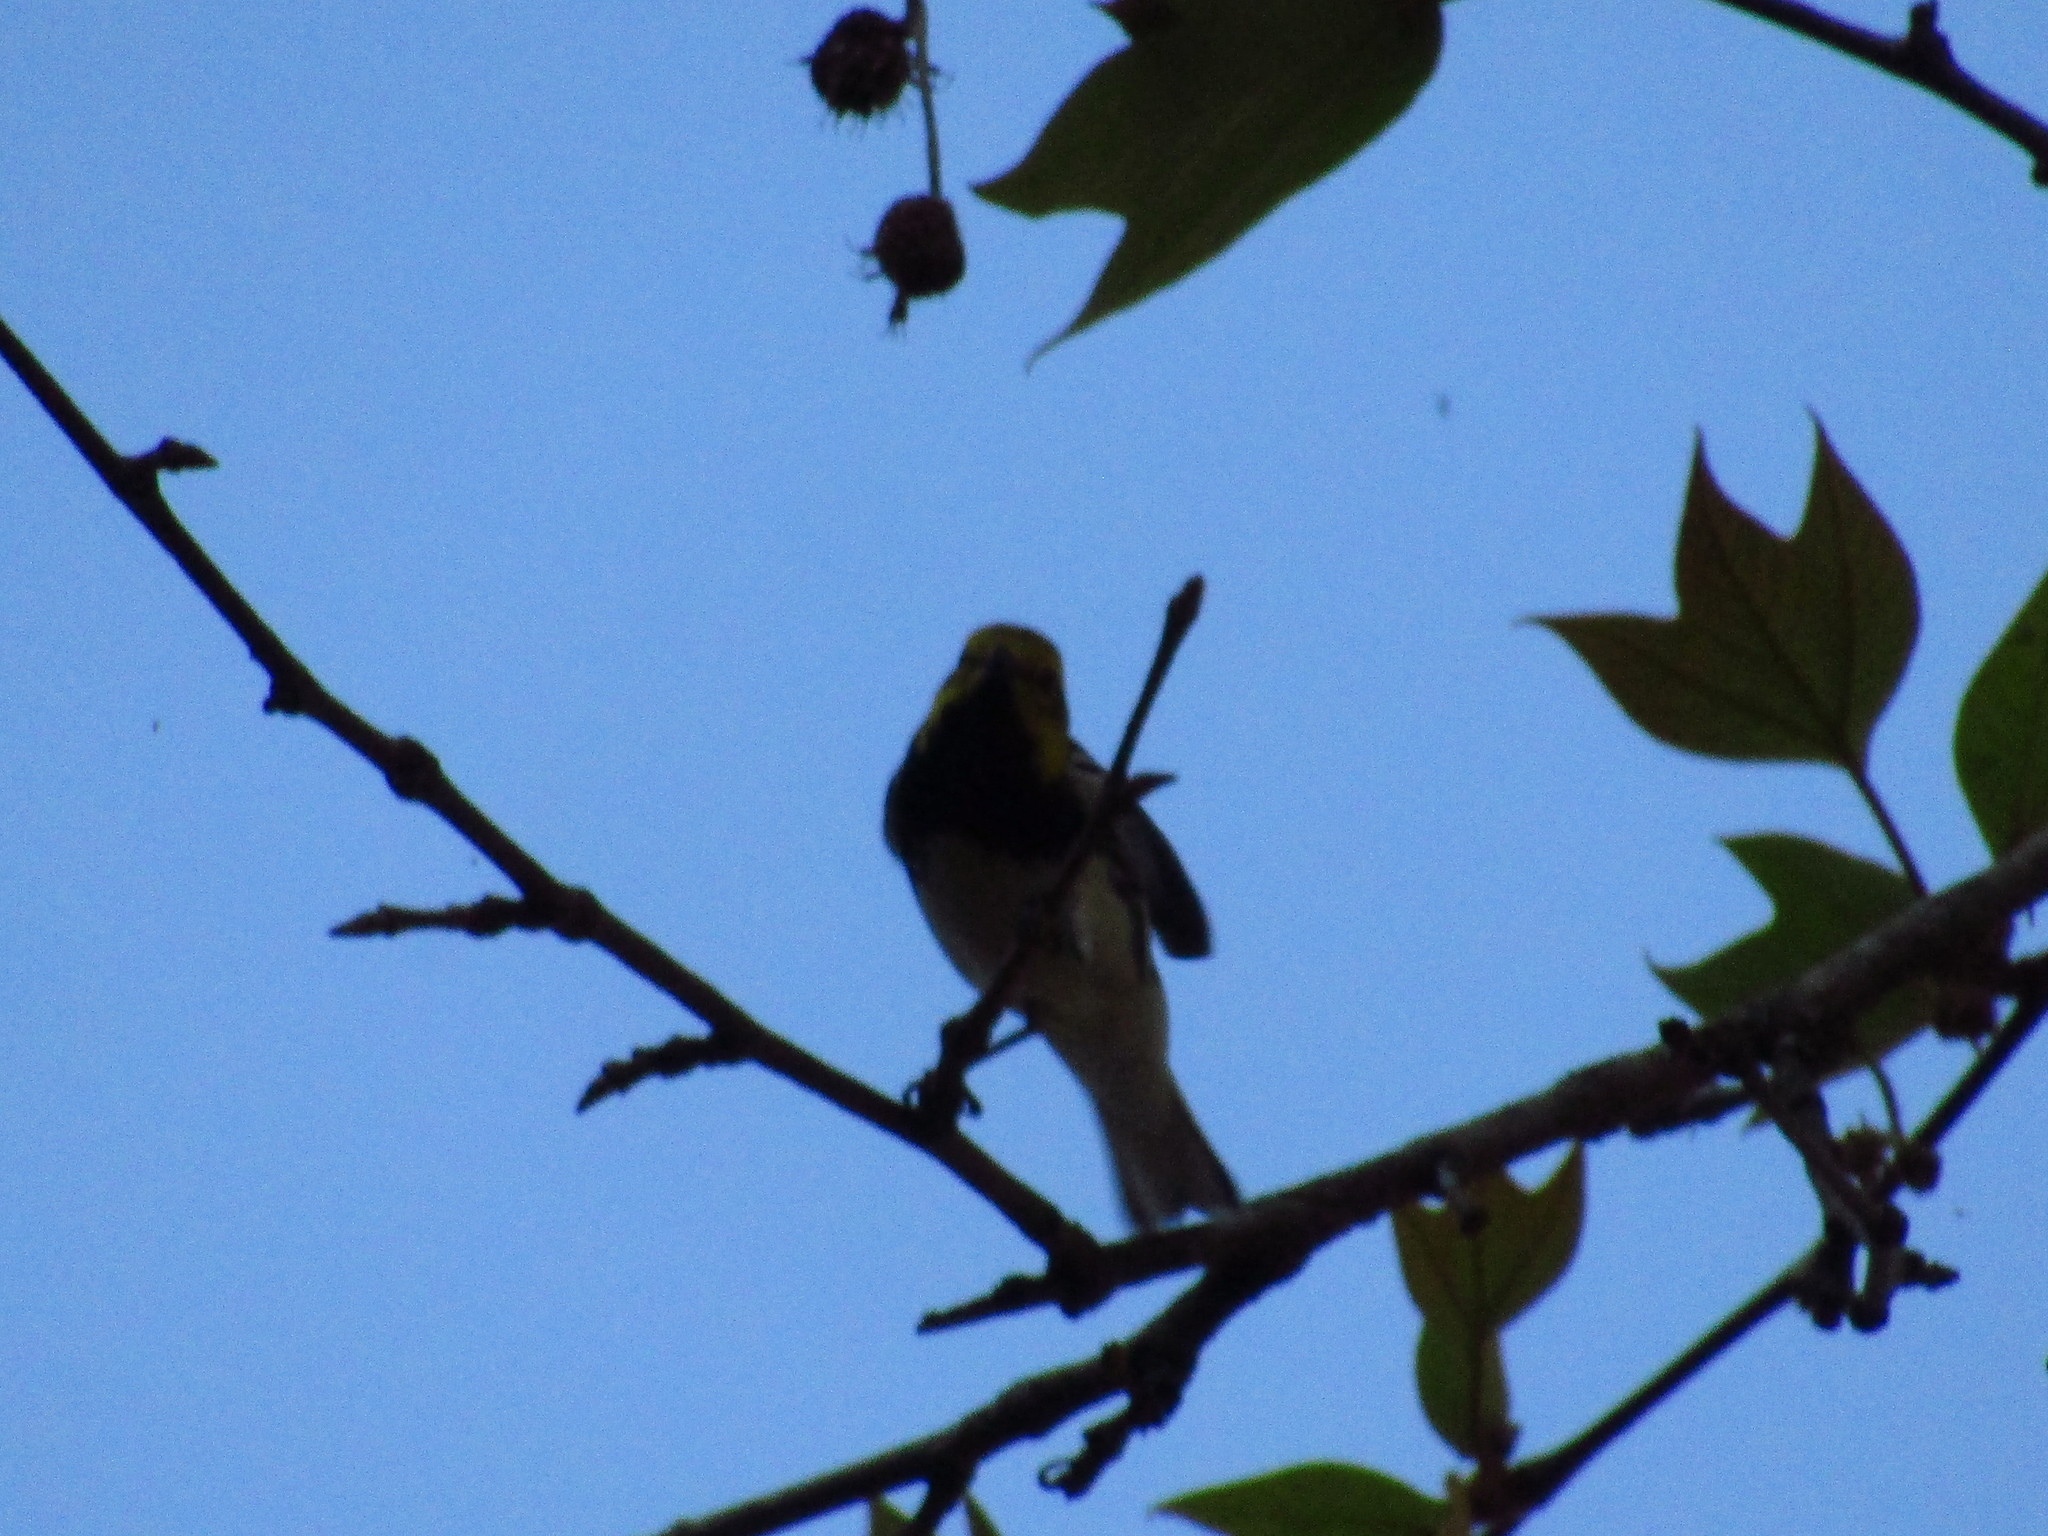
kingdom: Animalia
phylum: Chordata
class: Aves
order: Passeriformes
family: Parulidae
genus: Setophaga
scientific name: Setophaga virens
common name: Black-throated green warbler
